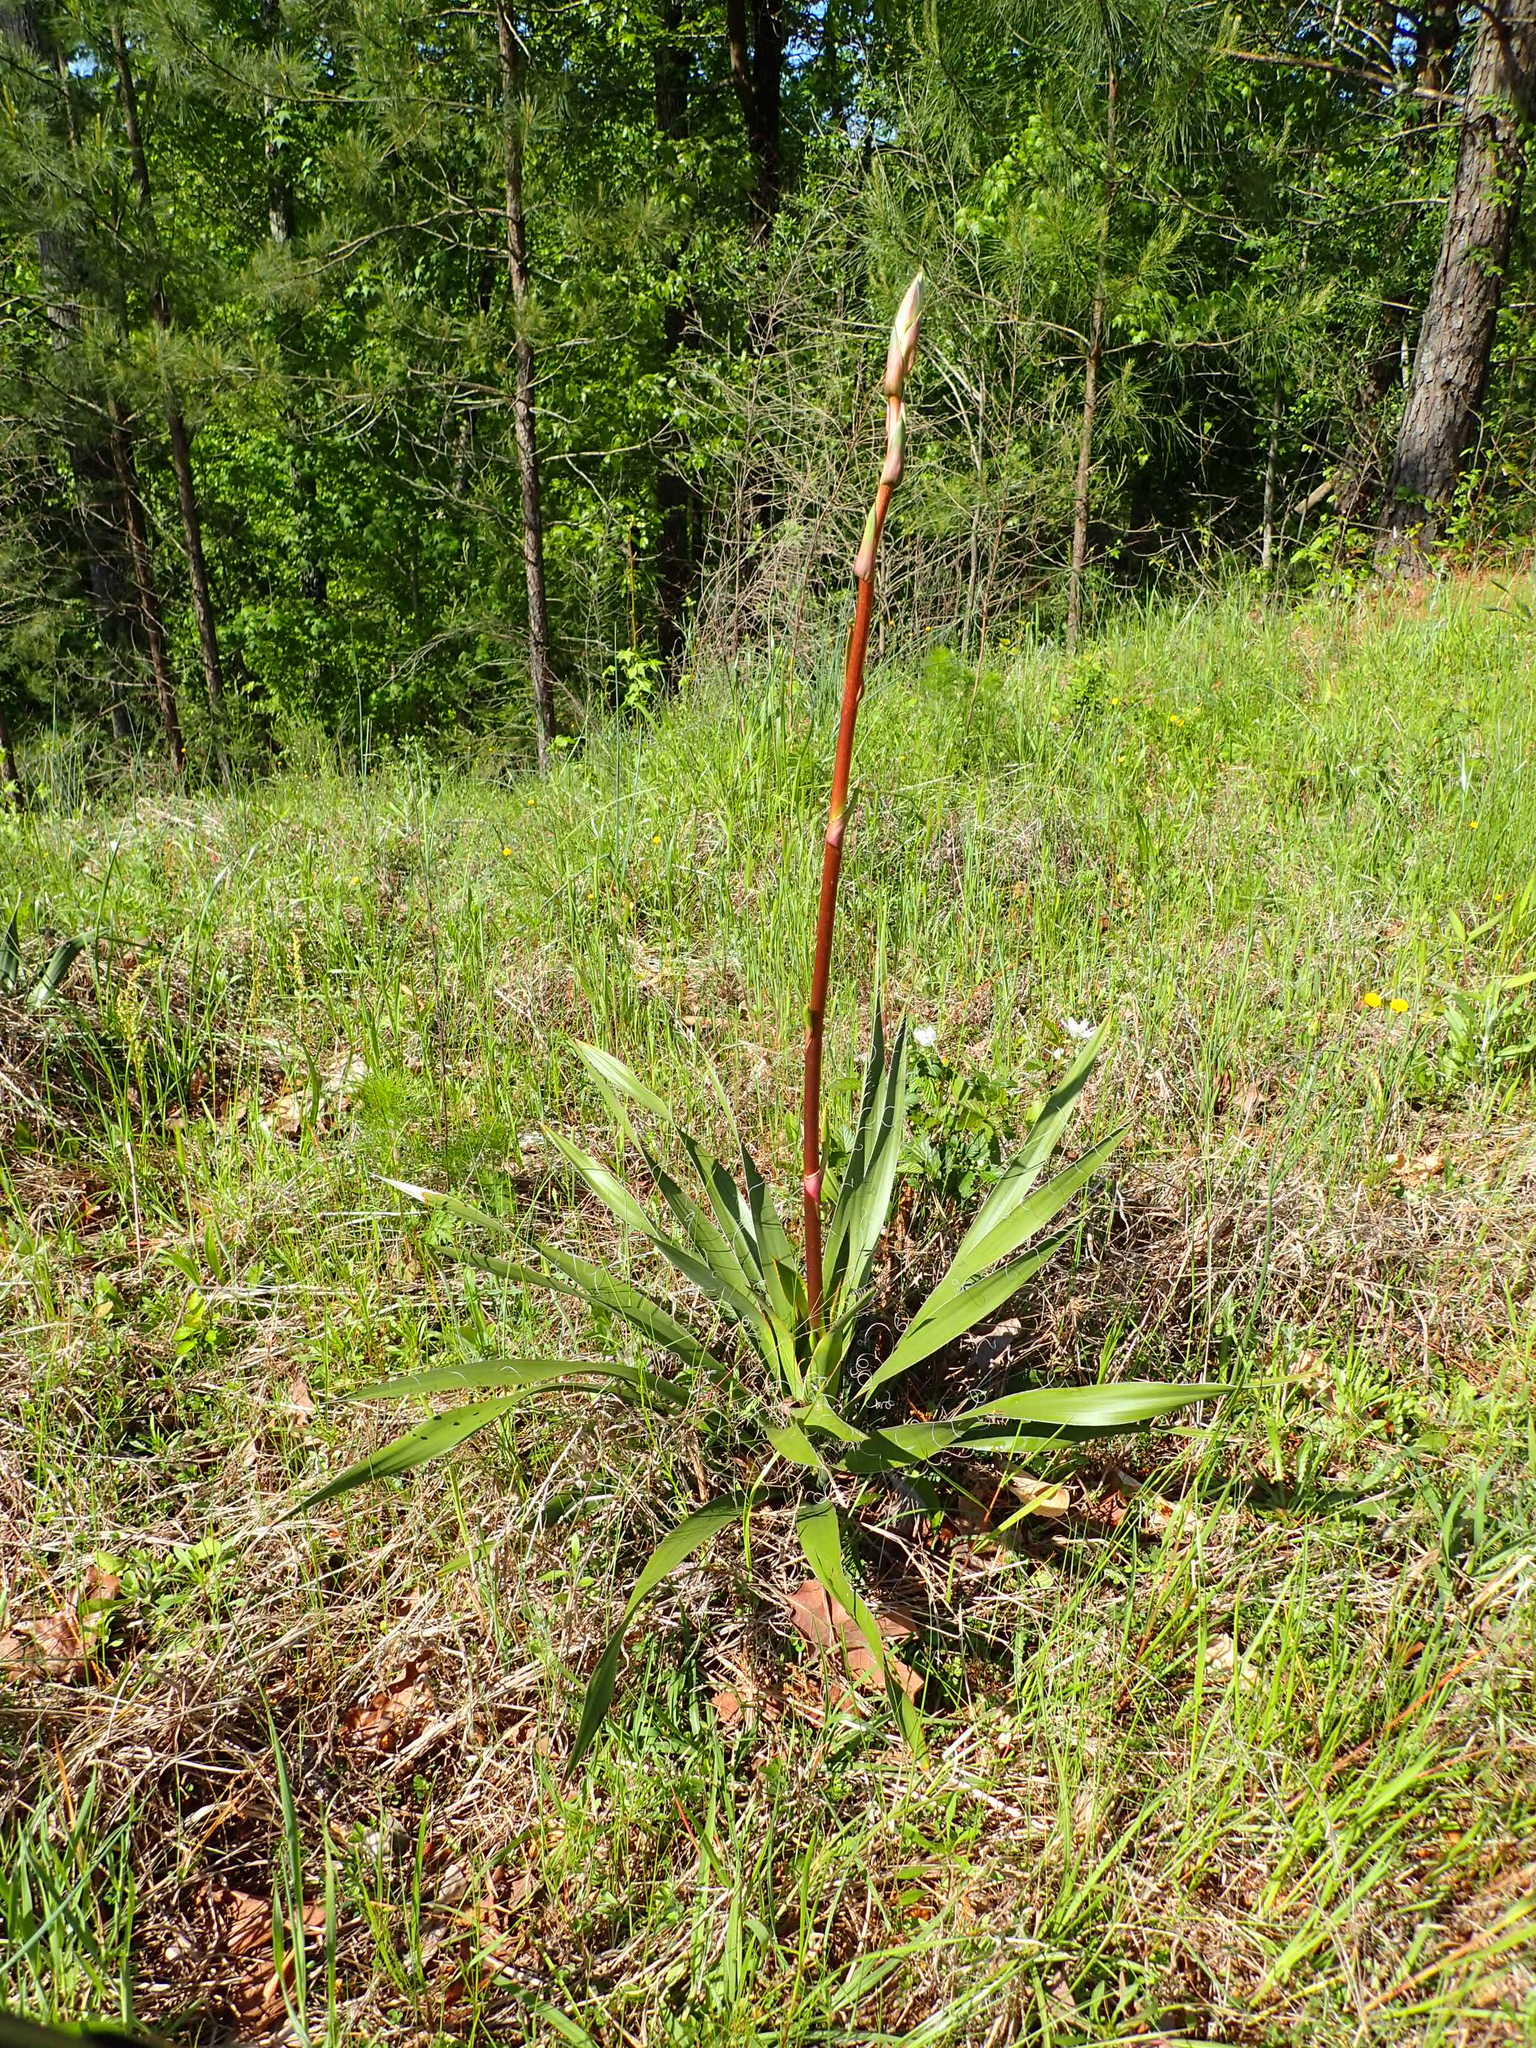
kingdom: Plantae
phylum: Tracheophyta
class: Liliopsida
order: Asparagales
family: Asparagaceae
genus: Yucca
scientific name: Yucca filamentosa
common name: Adam's-needle
